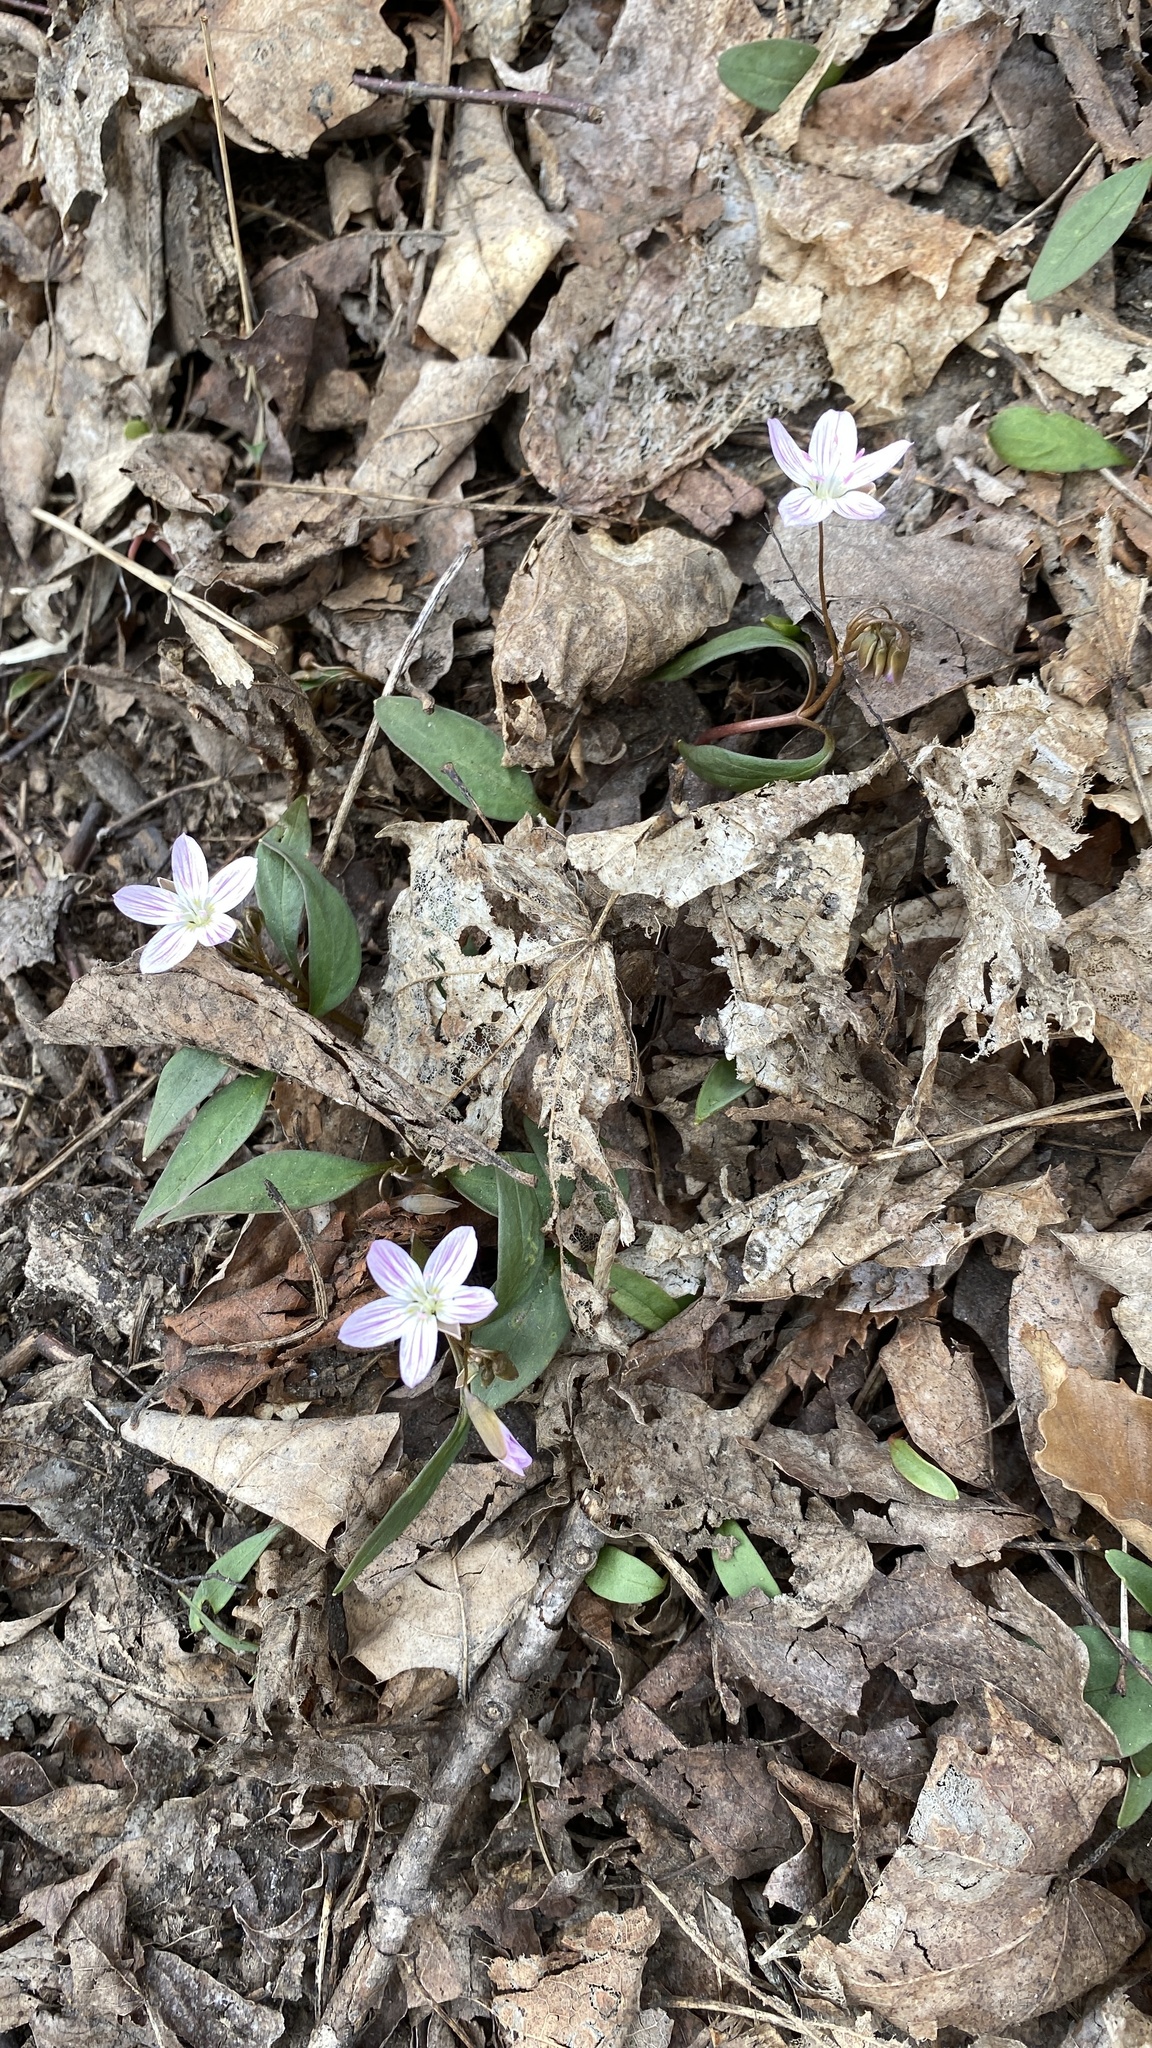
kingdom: Plantae
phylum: Tracheophyta
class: Magnoliopsida
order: Caryophyllales
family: Montiaceae
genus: Claytonia
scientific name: Claytonia caroliniana
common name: Carolina spring beauty
